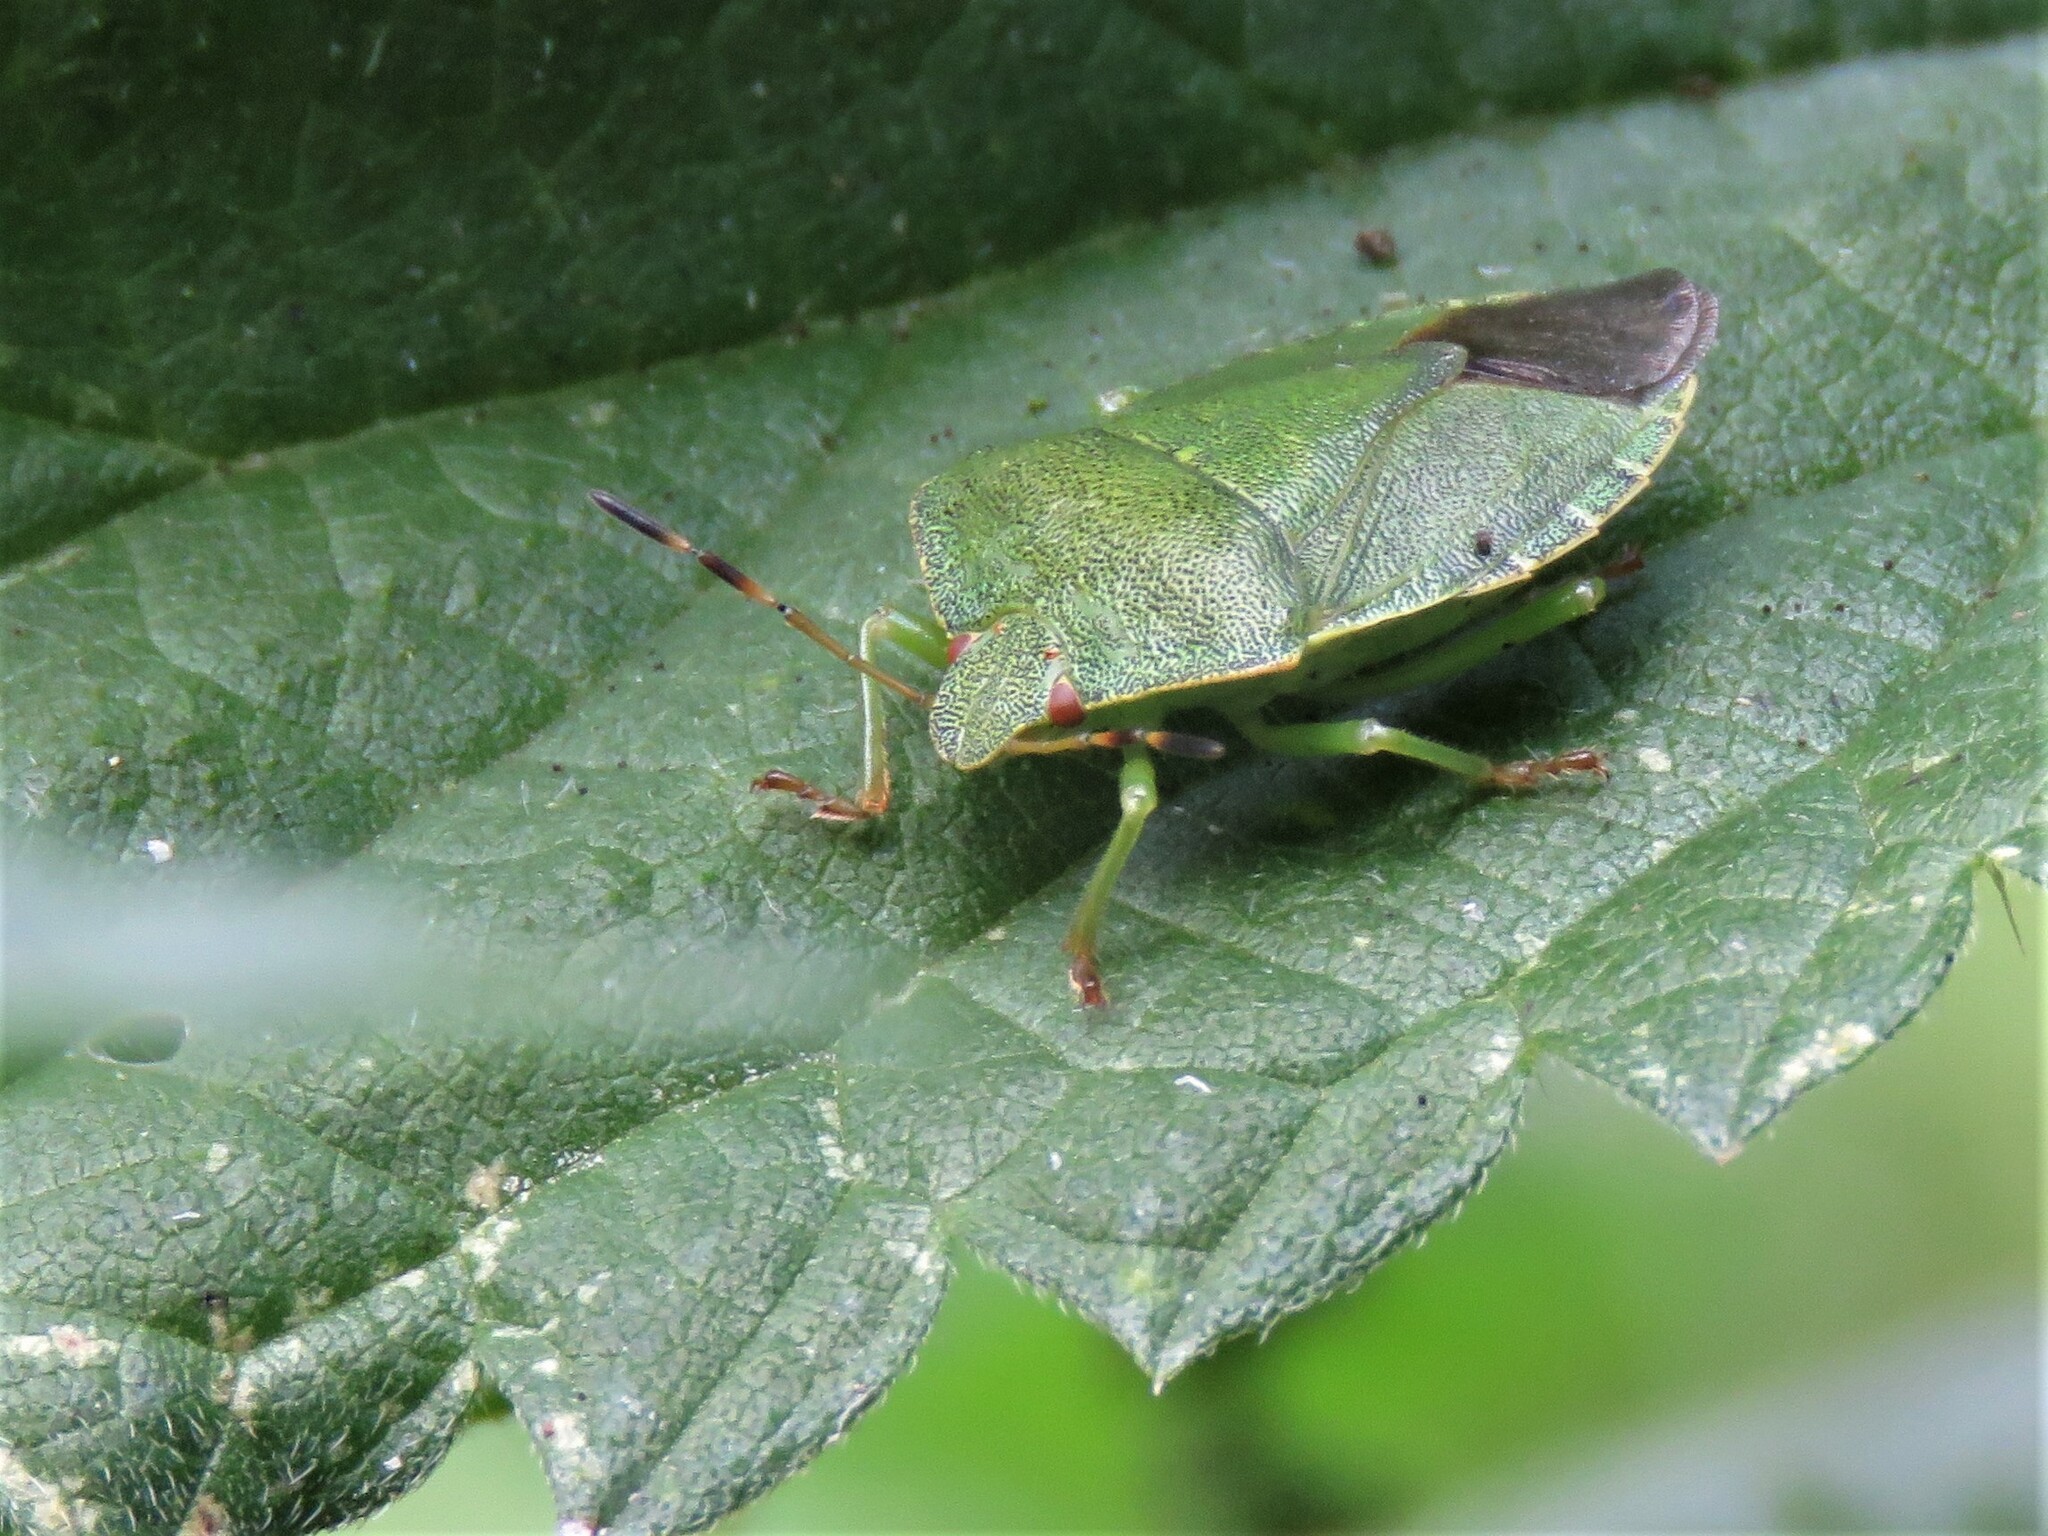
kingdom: Animalia
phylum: Arthropoda
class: Insecta
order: Hemiptera
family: Pentatomidae
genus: Palomena
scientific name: Palomena prasina
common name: Green shieldbug
